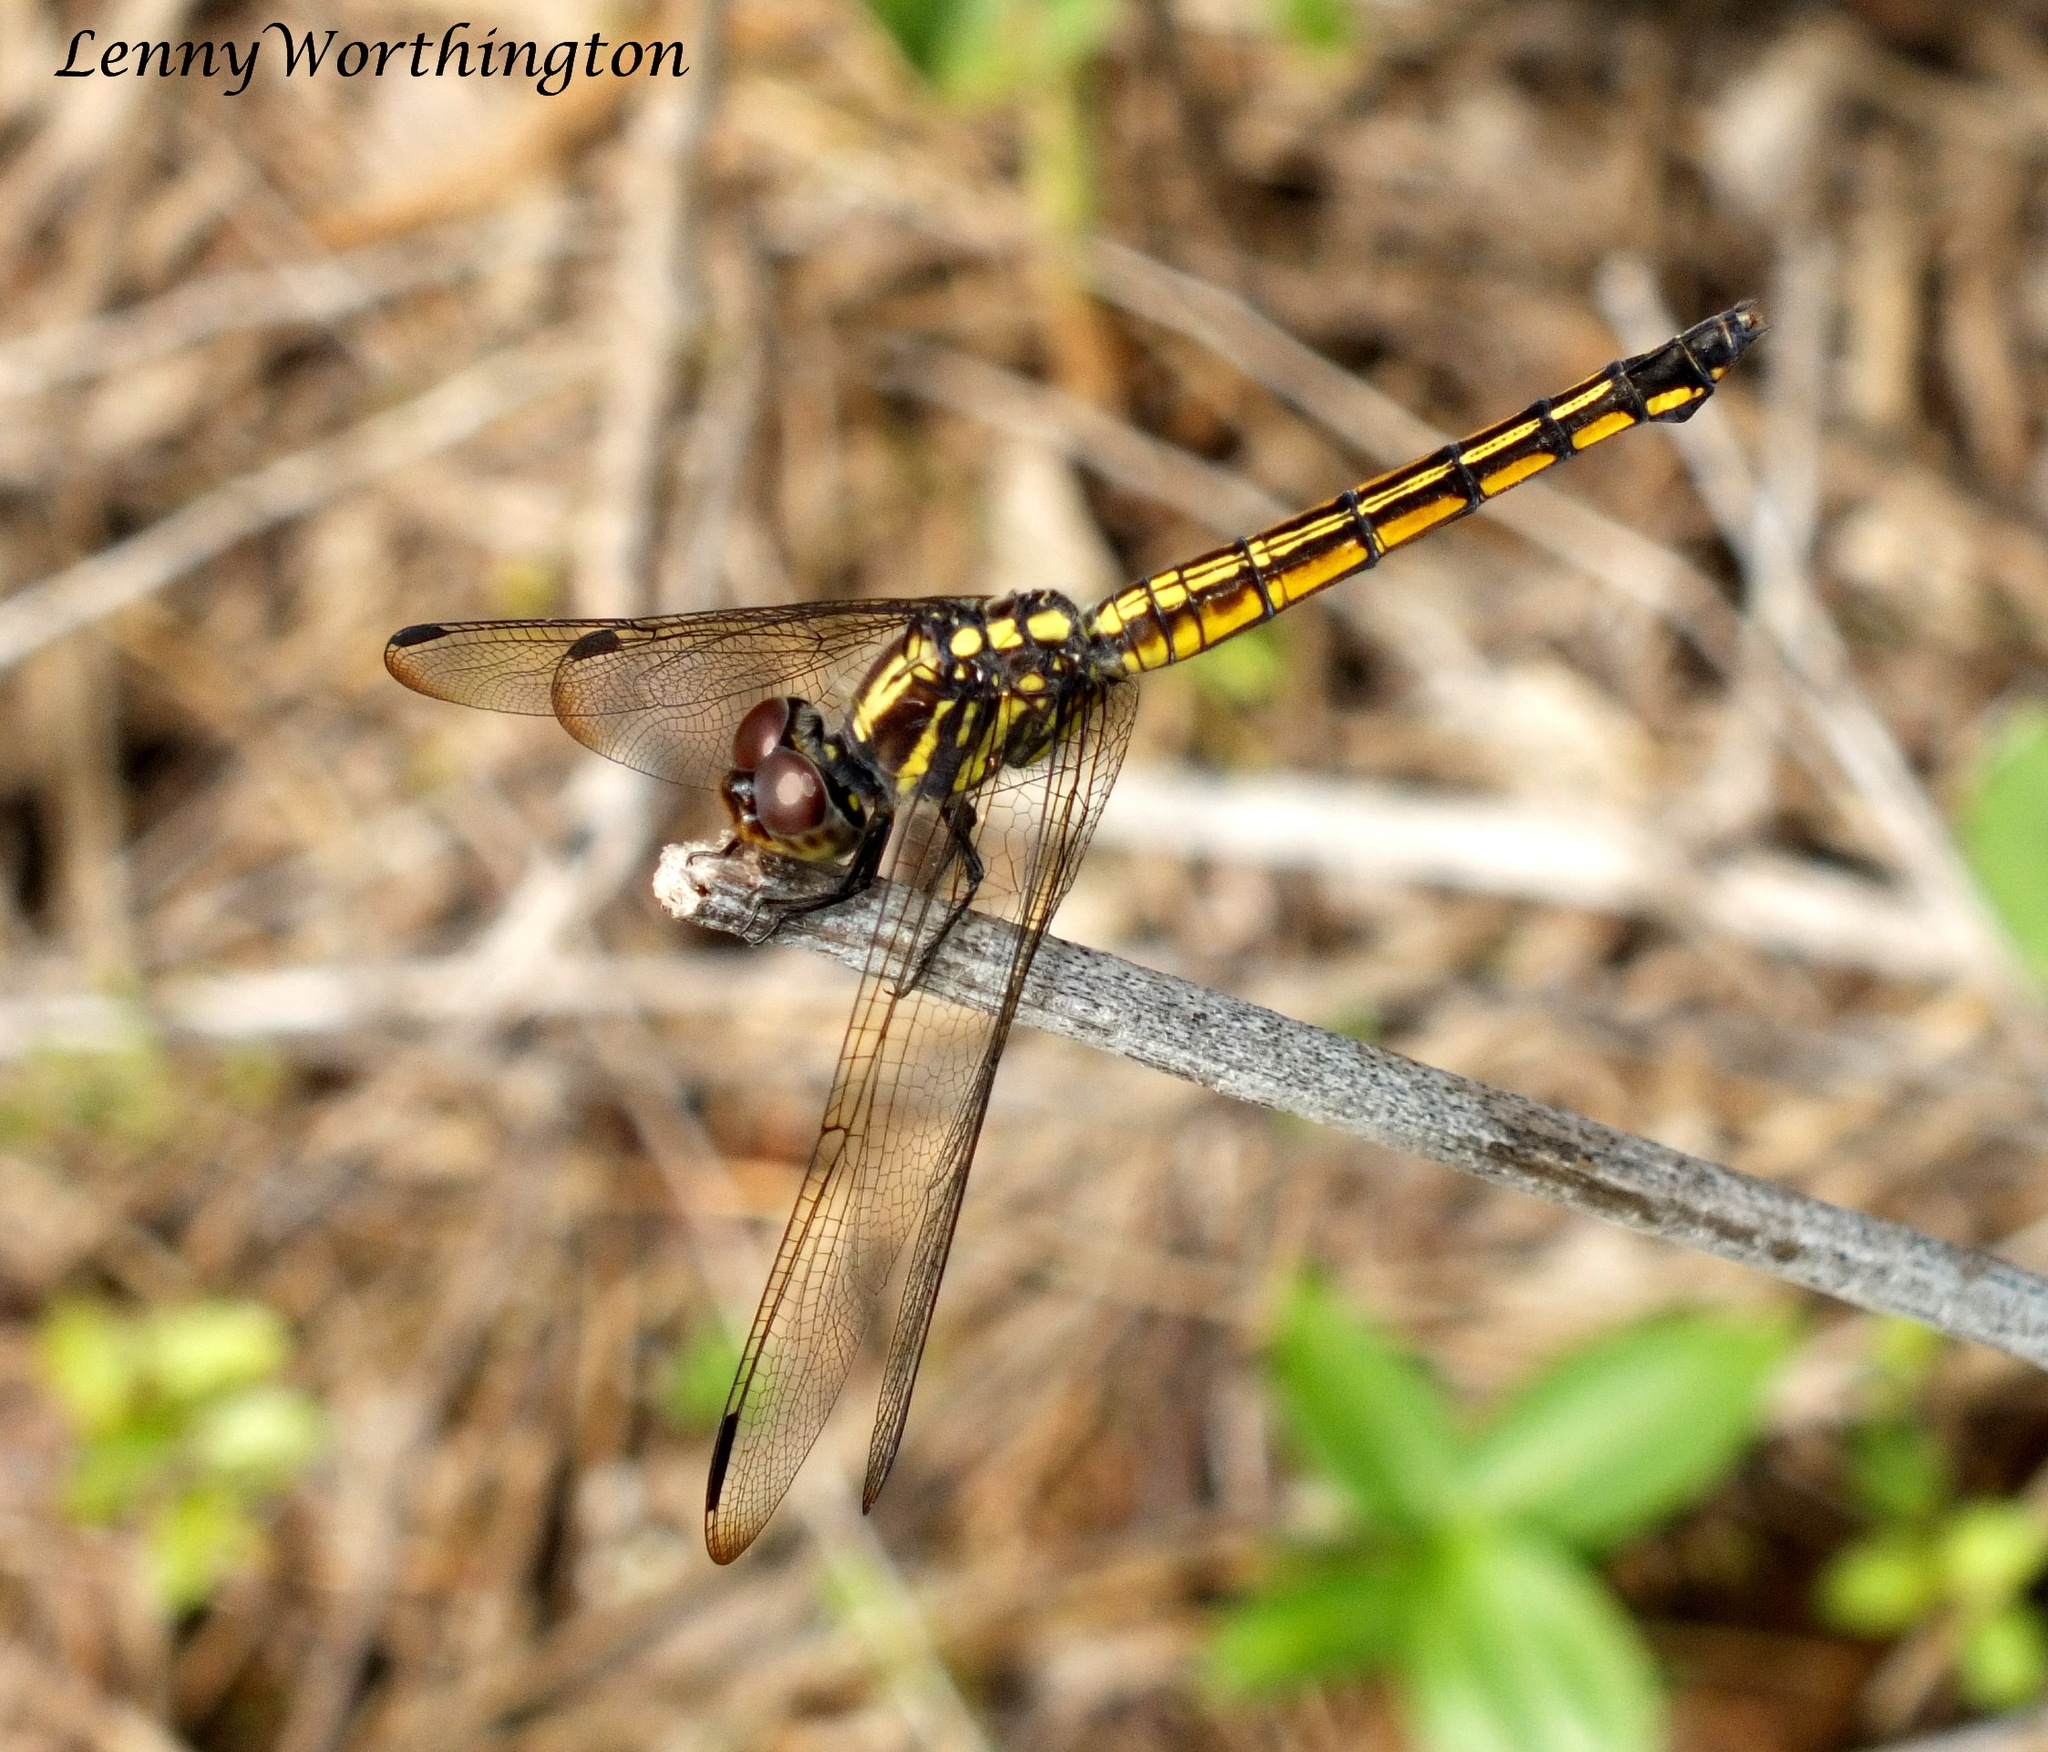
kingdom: Animalia
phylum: Arthropoda
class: Insecta
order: Odonata
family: Libellulidae
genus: Potamarcha
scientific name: Potamarcha congener
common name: Blue chaser
